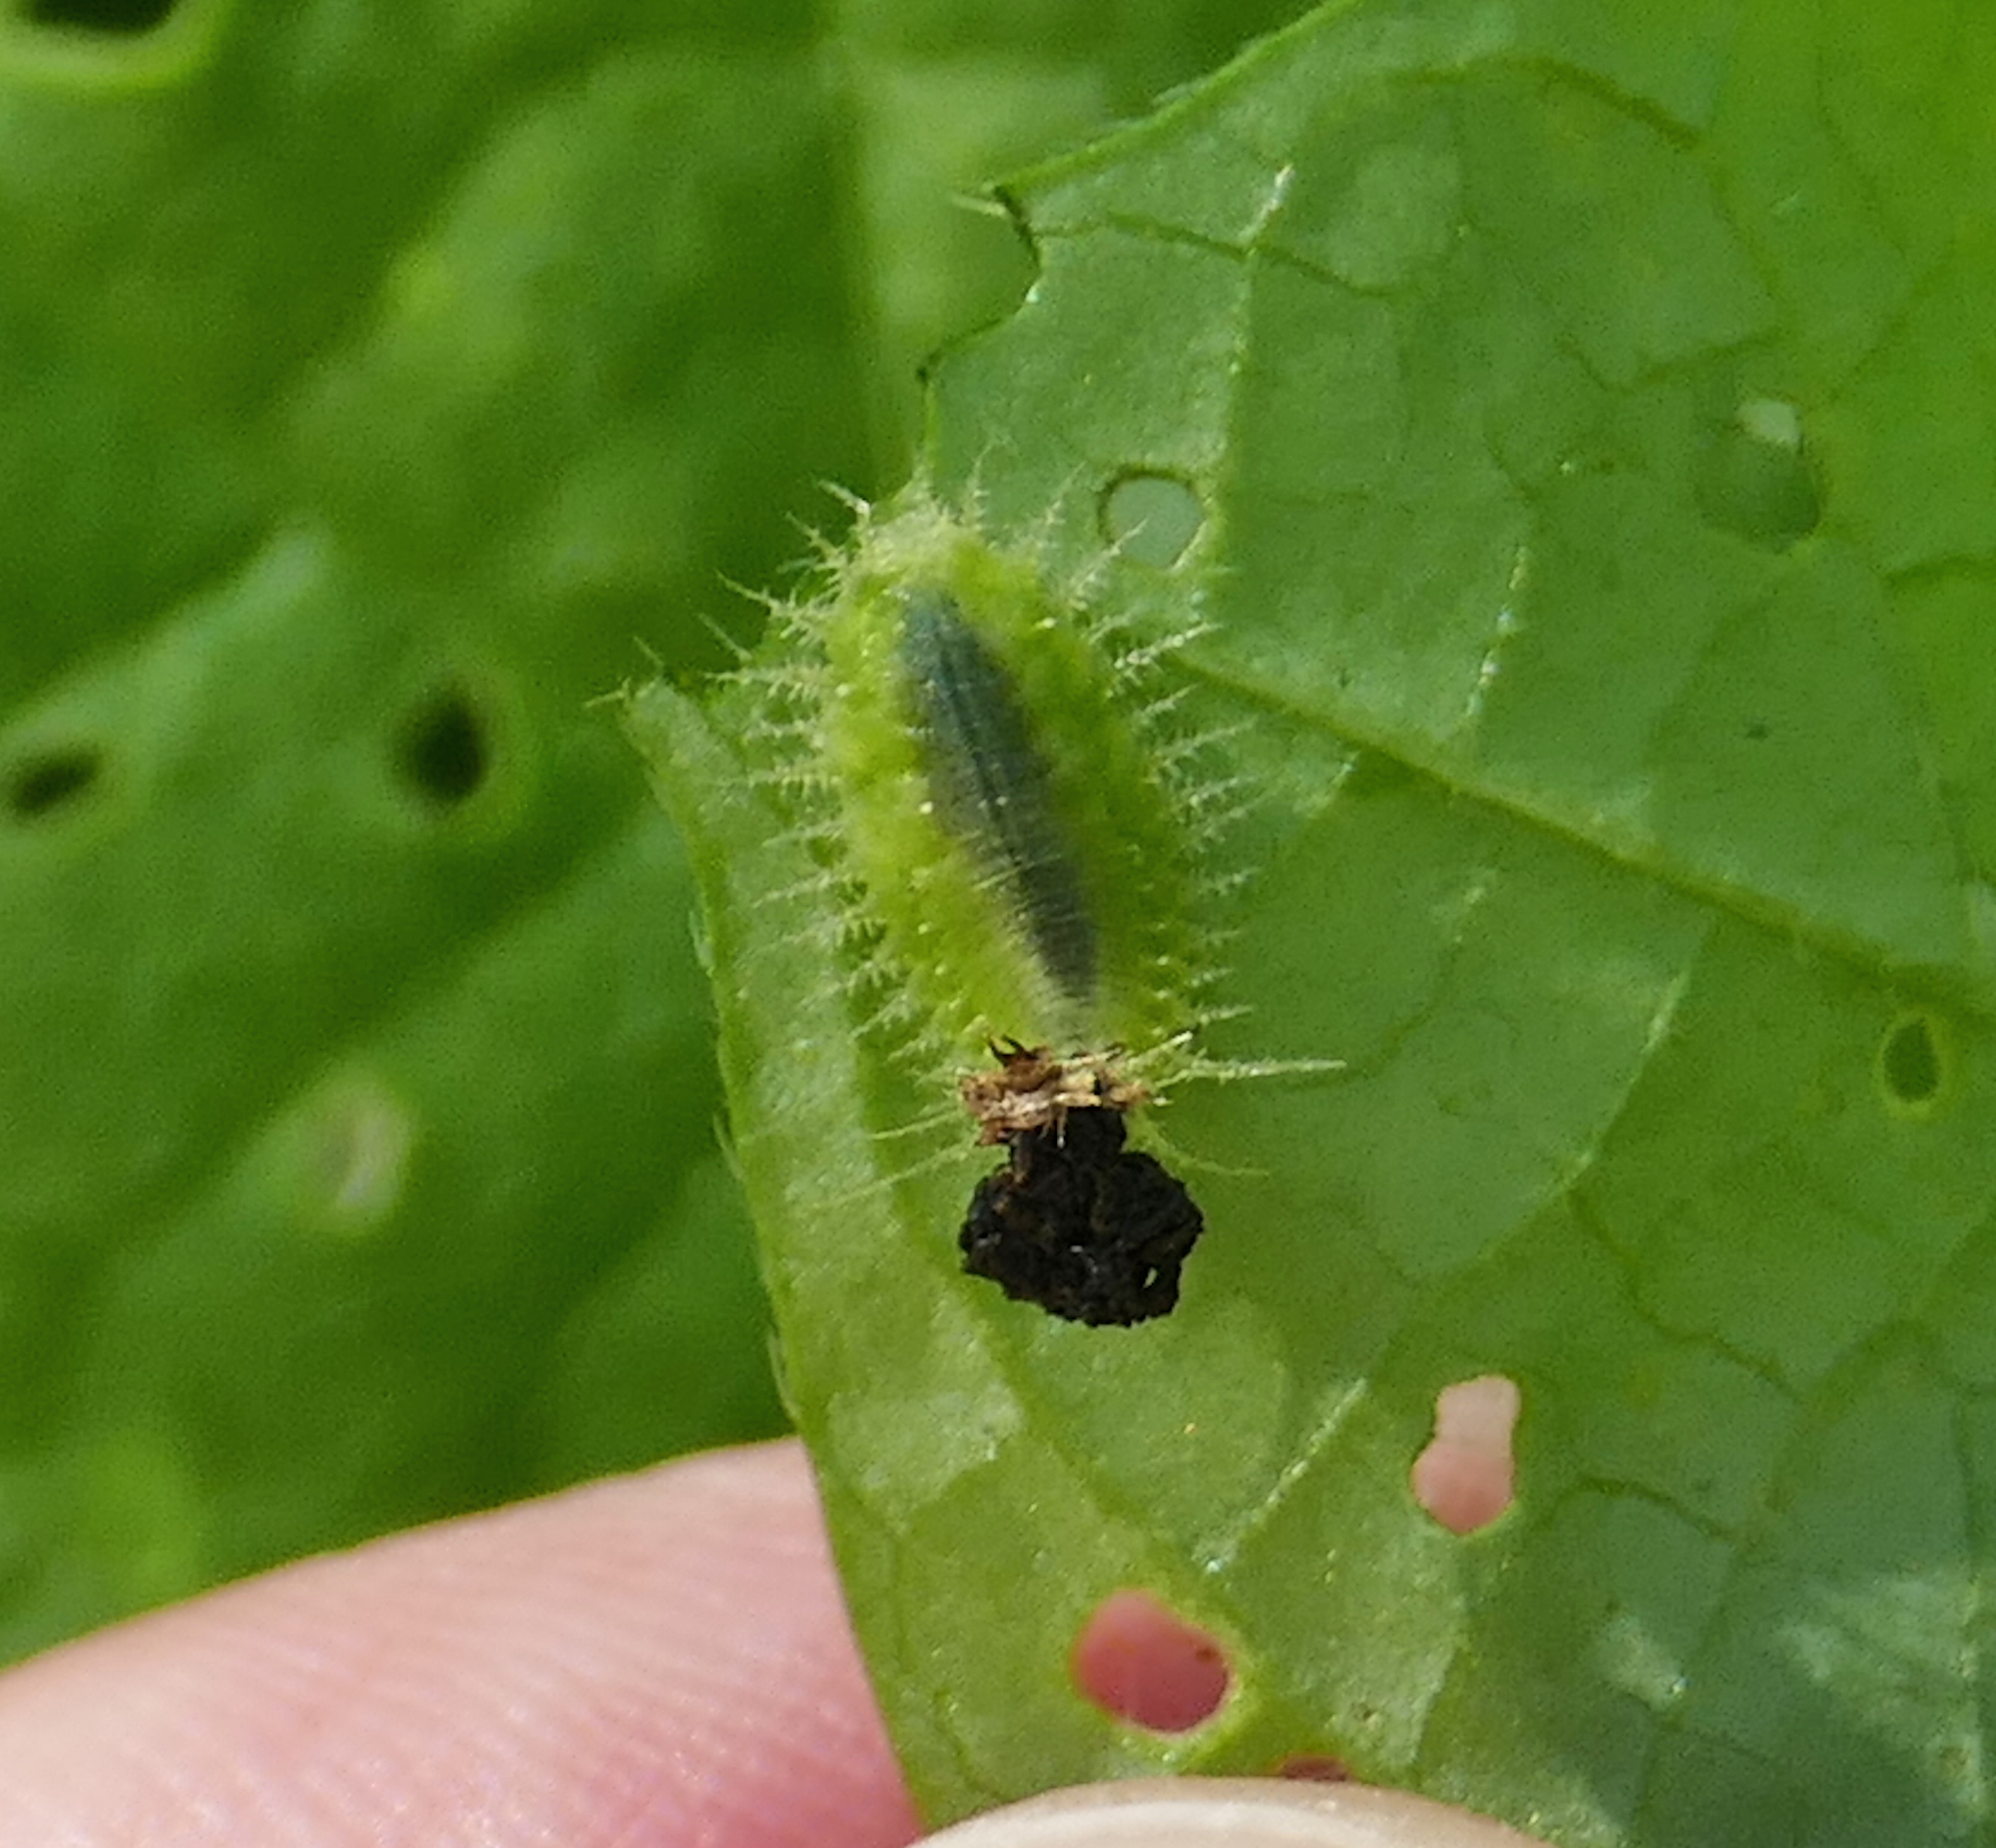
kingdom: Animalia
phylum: Arthropoda
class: Insecta
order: Coleoptera
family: Chrysomelidae
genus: Deloyala
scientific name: Deloyala lecontei
